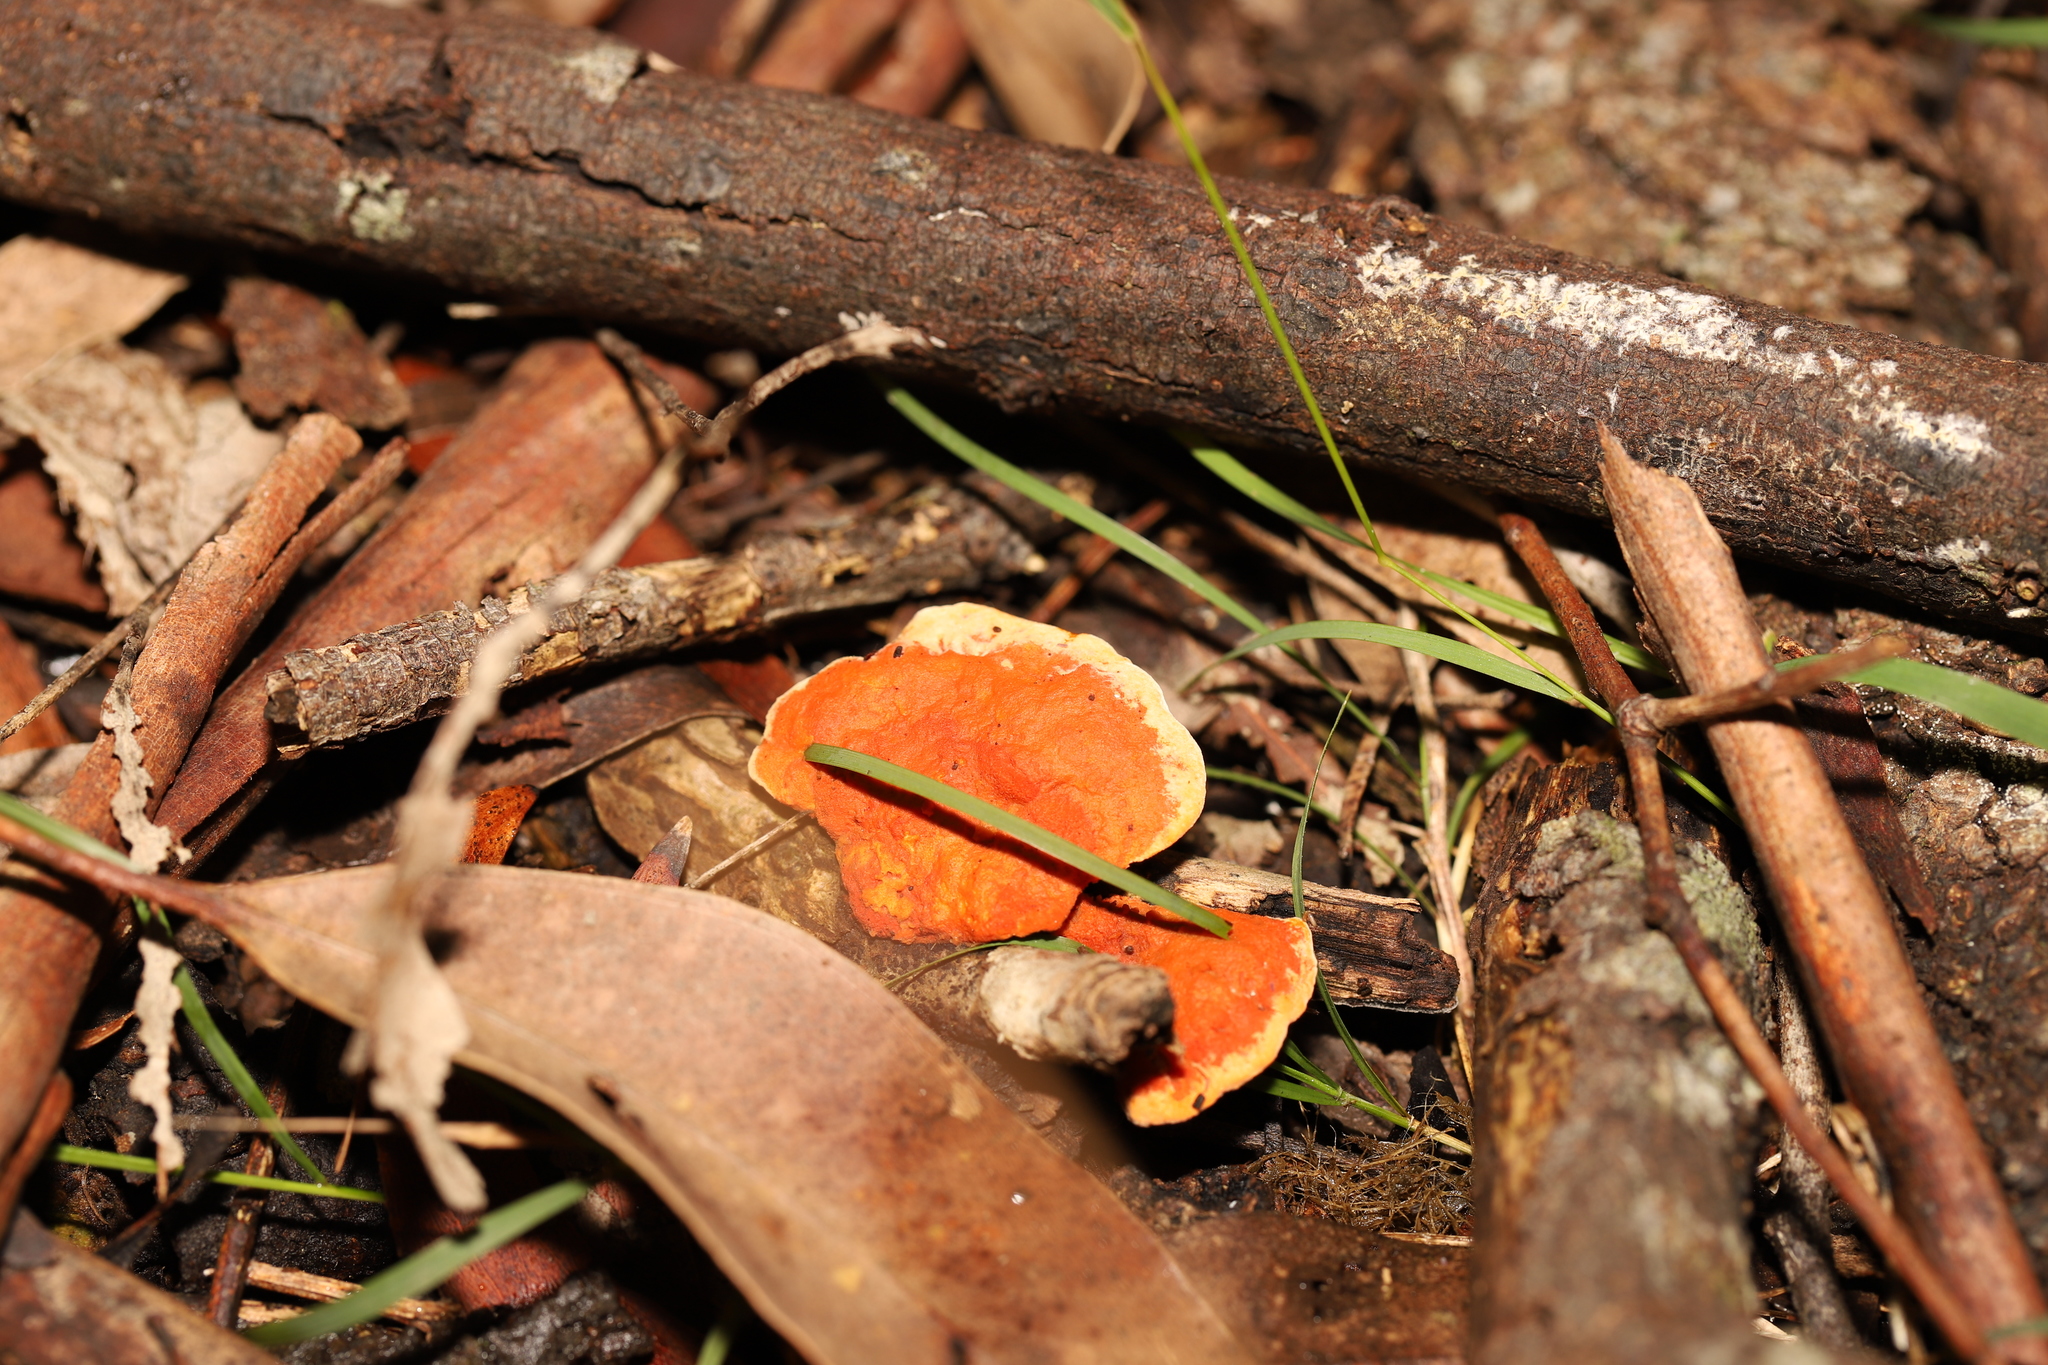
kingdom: Fungi
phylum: Basidiomycota
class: Agaricomycetes
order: Polyporales
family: Polyporaceae
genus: Trametes
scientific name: Trametes coccinea
